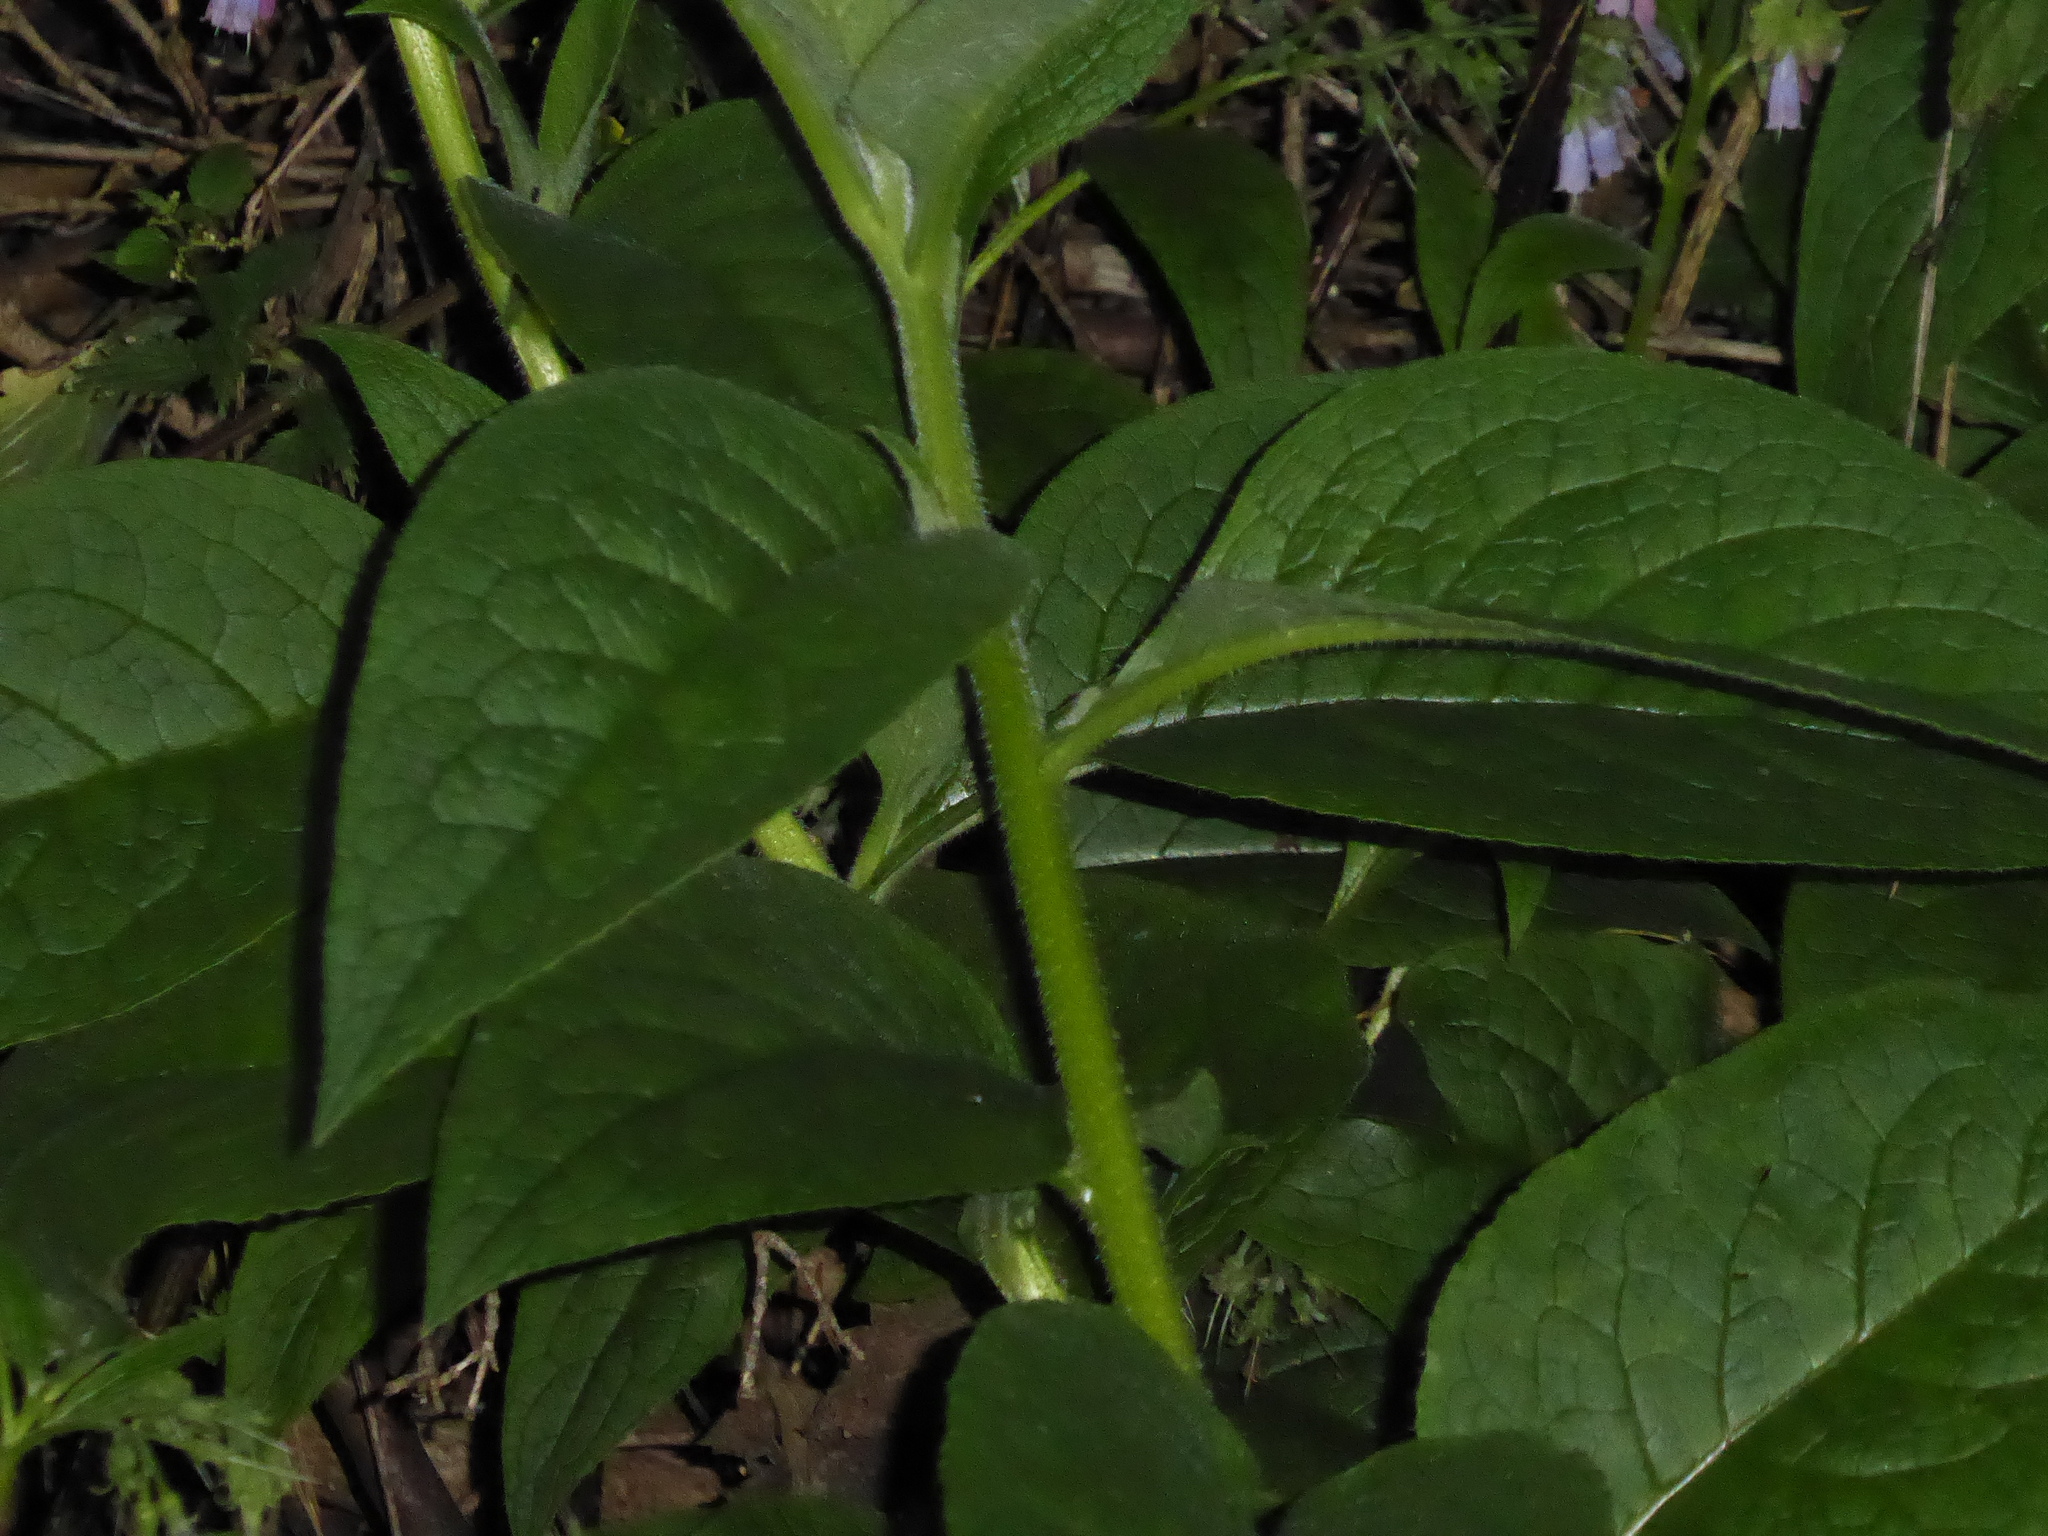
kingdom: Plantae
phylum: Tracheophyta
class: Magnoliopsida
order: Boraginales
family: Boraginaceae
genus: Symphytum
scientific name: Symphytum uplandicum
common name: Russian comfrey
